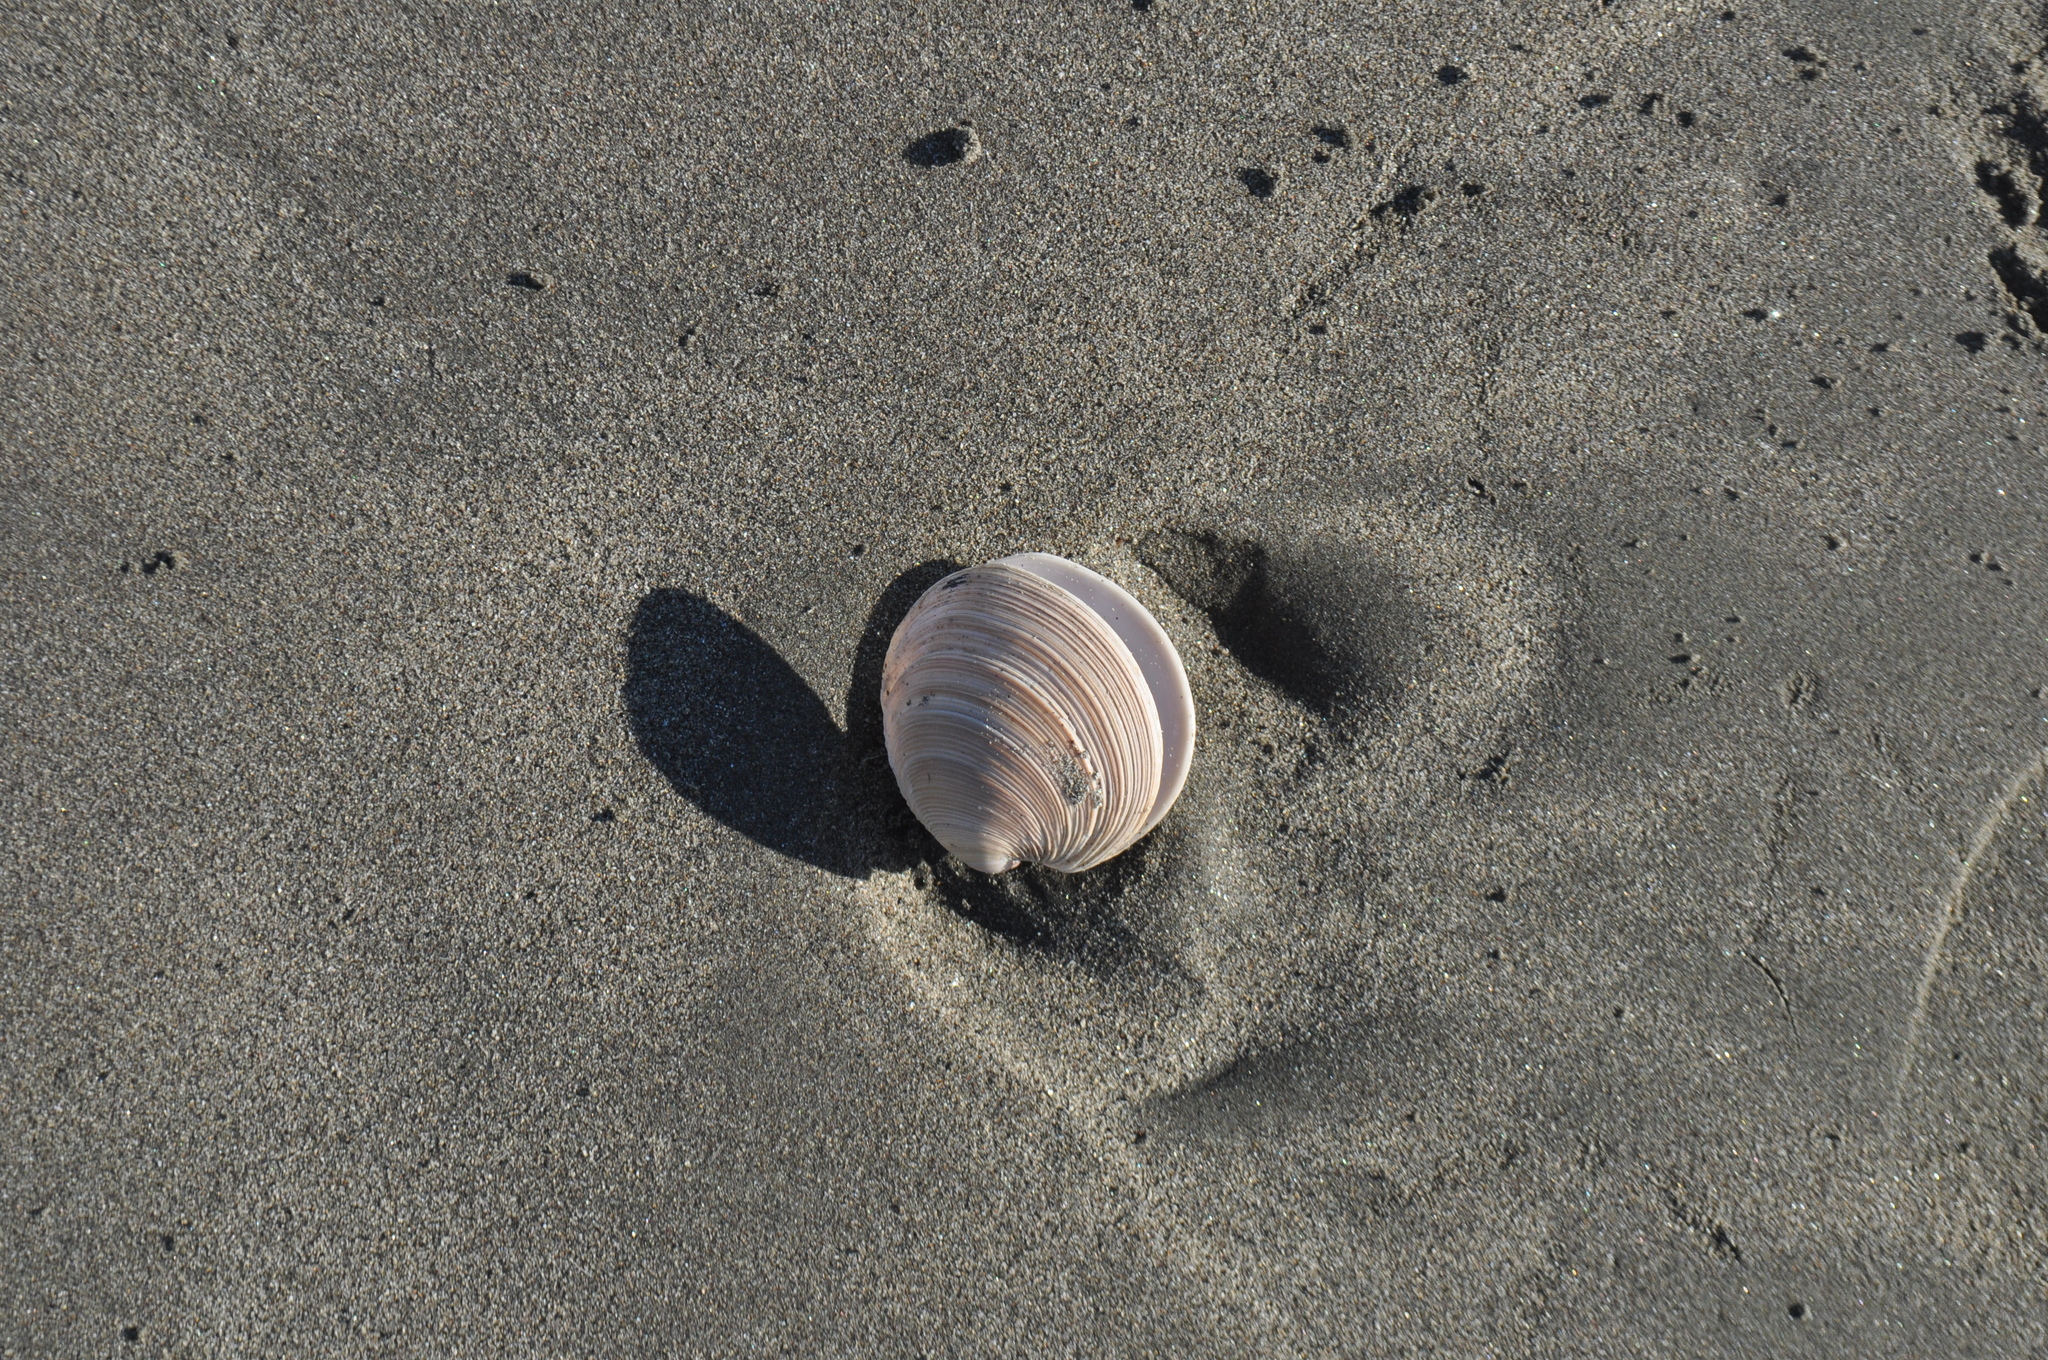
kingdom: Animalia
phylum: Mollusca
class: Bivalvia
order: Venerida
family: Veneridae
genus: Dosinia
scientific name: Dosinia anus
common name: Old-woman dosinia
